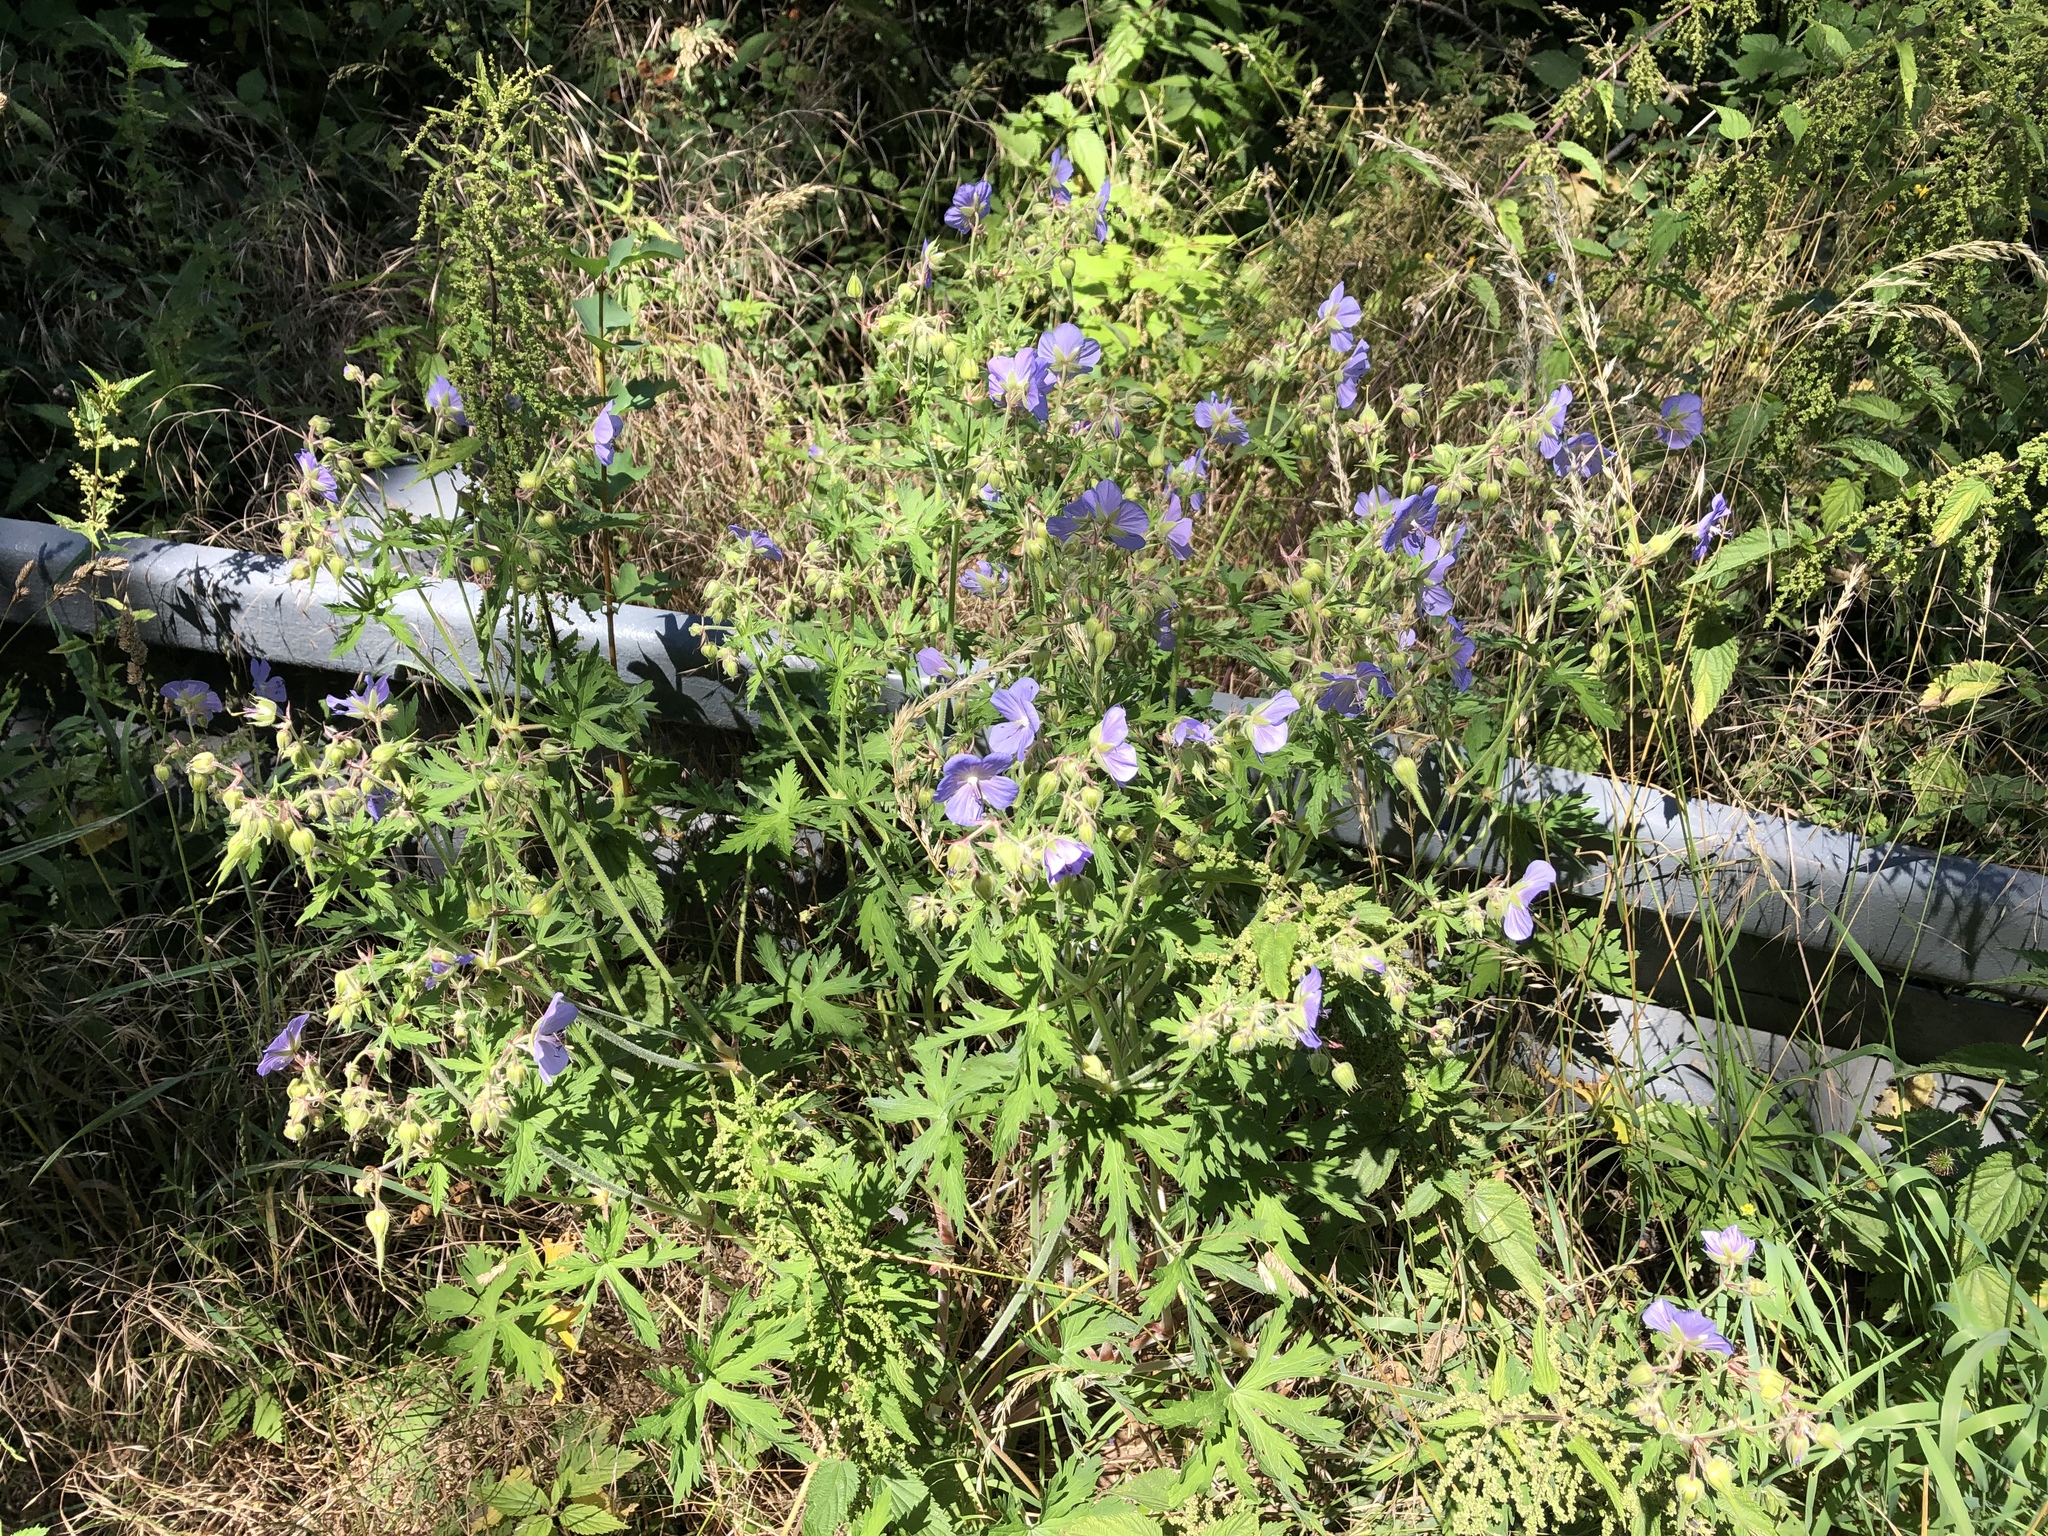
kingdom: Plantae
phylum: Tracheophyta
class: Magnoliopsida
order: Geraniales
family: Geraniaceae
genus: Geranium
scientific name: Geranium pratense
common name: Meadow crane's-bill
